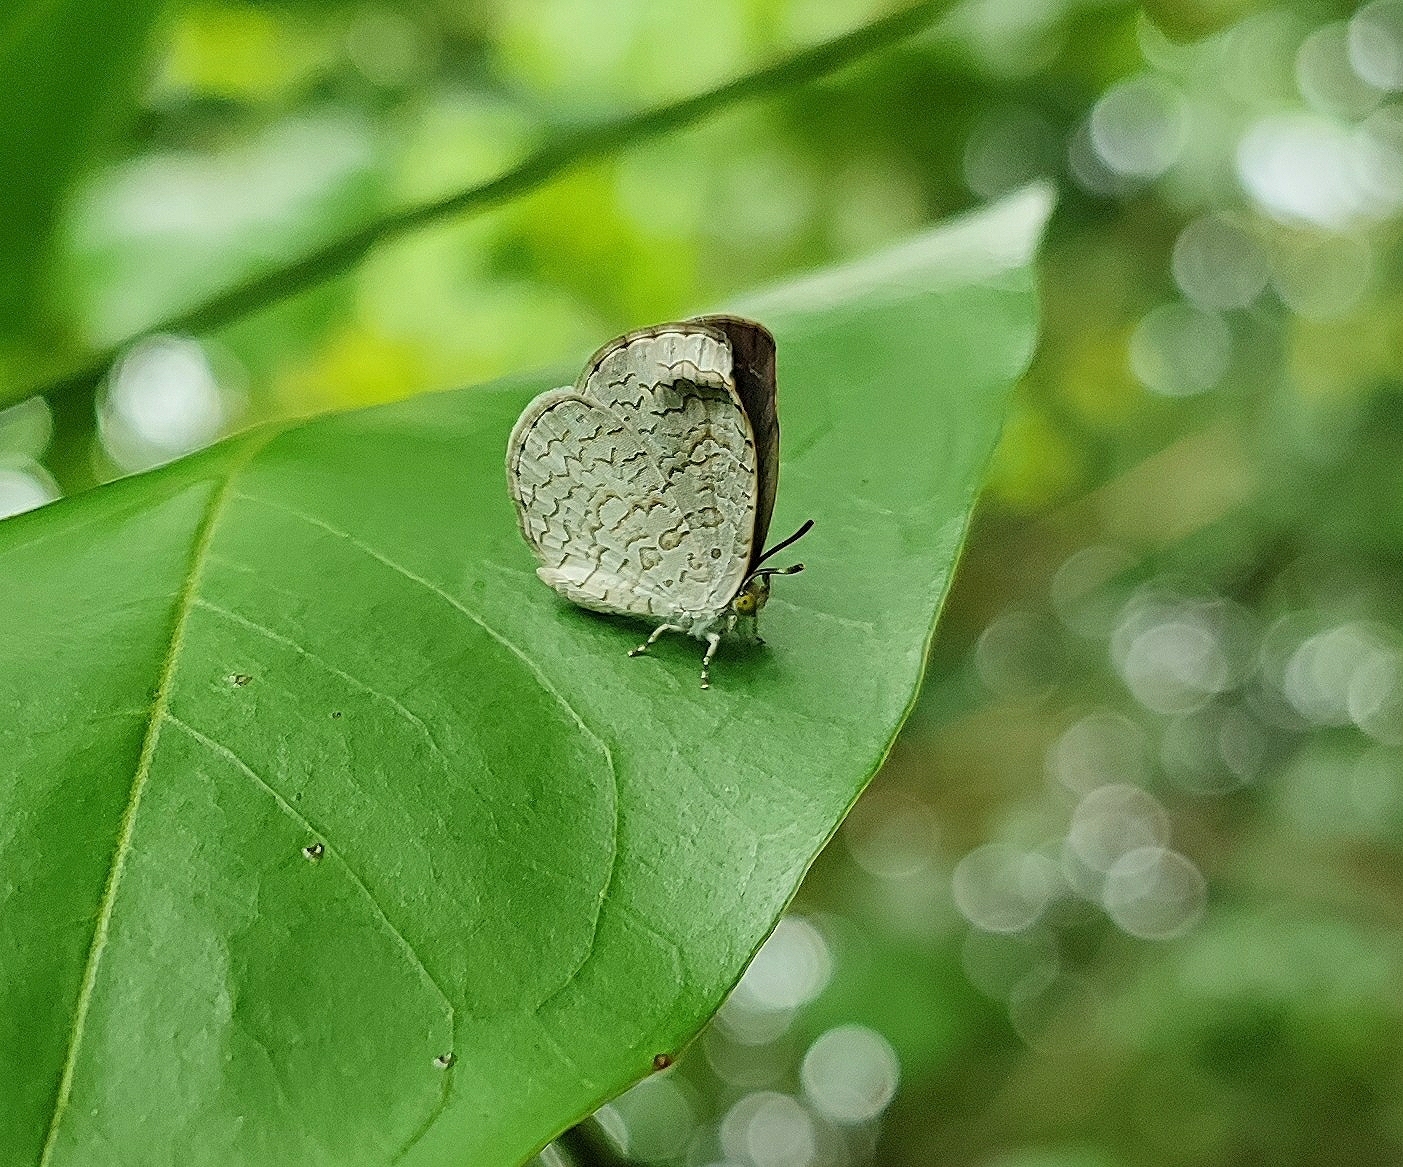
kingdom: Animalia
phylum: Arthropoda
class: Insecta
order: Lepidoptera
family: Lycaenidae
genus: Spalgis
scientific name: Spalgis epius
